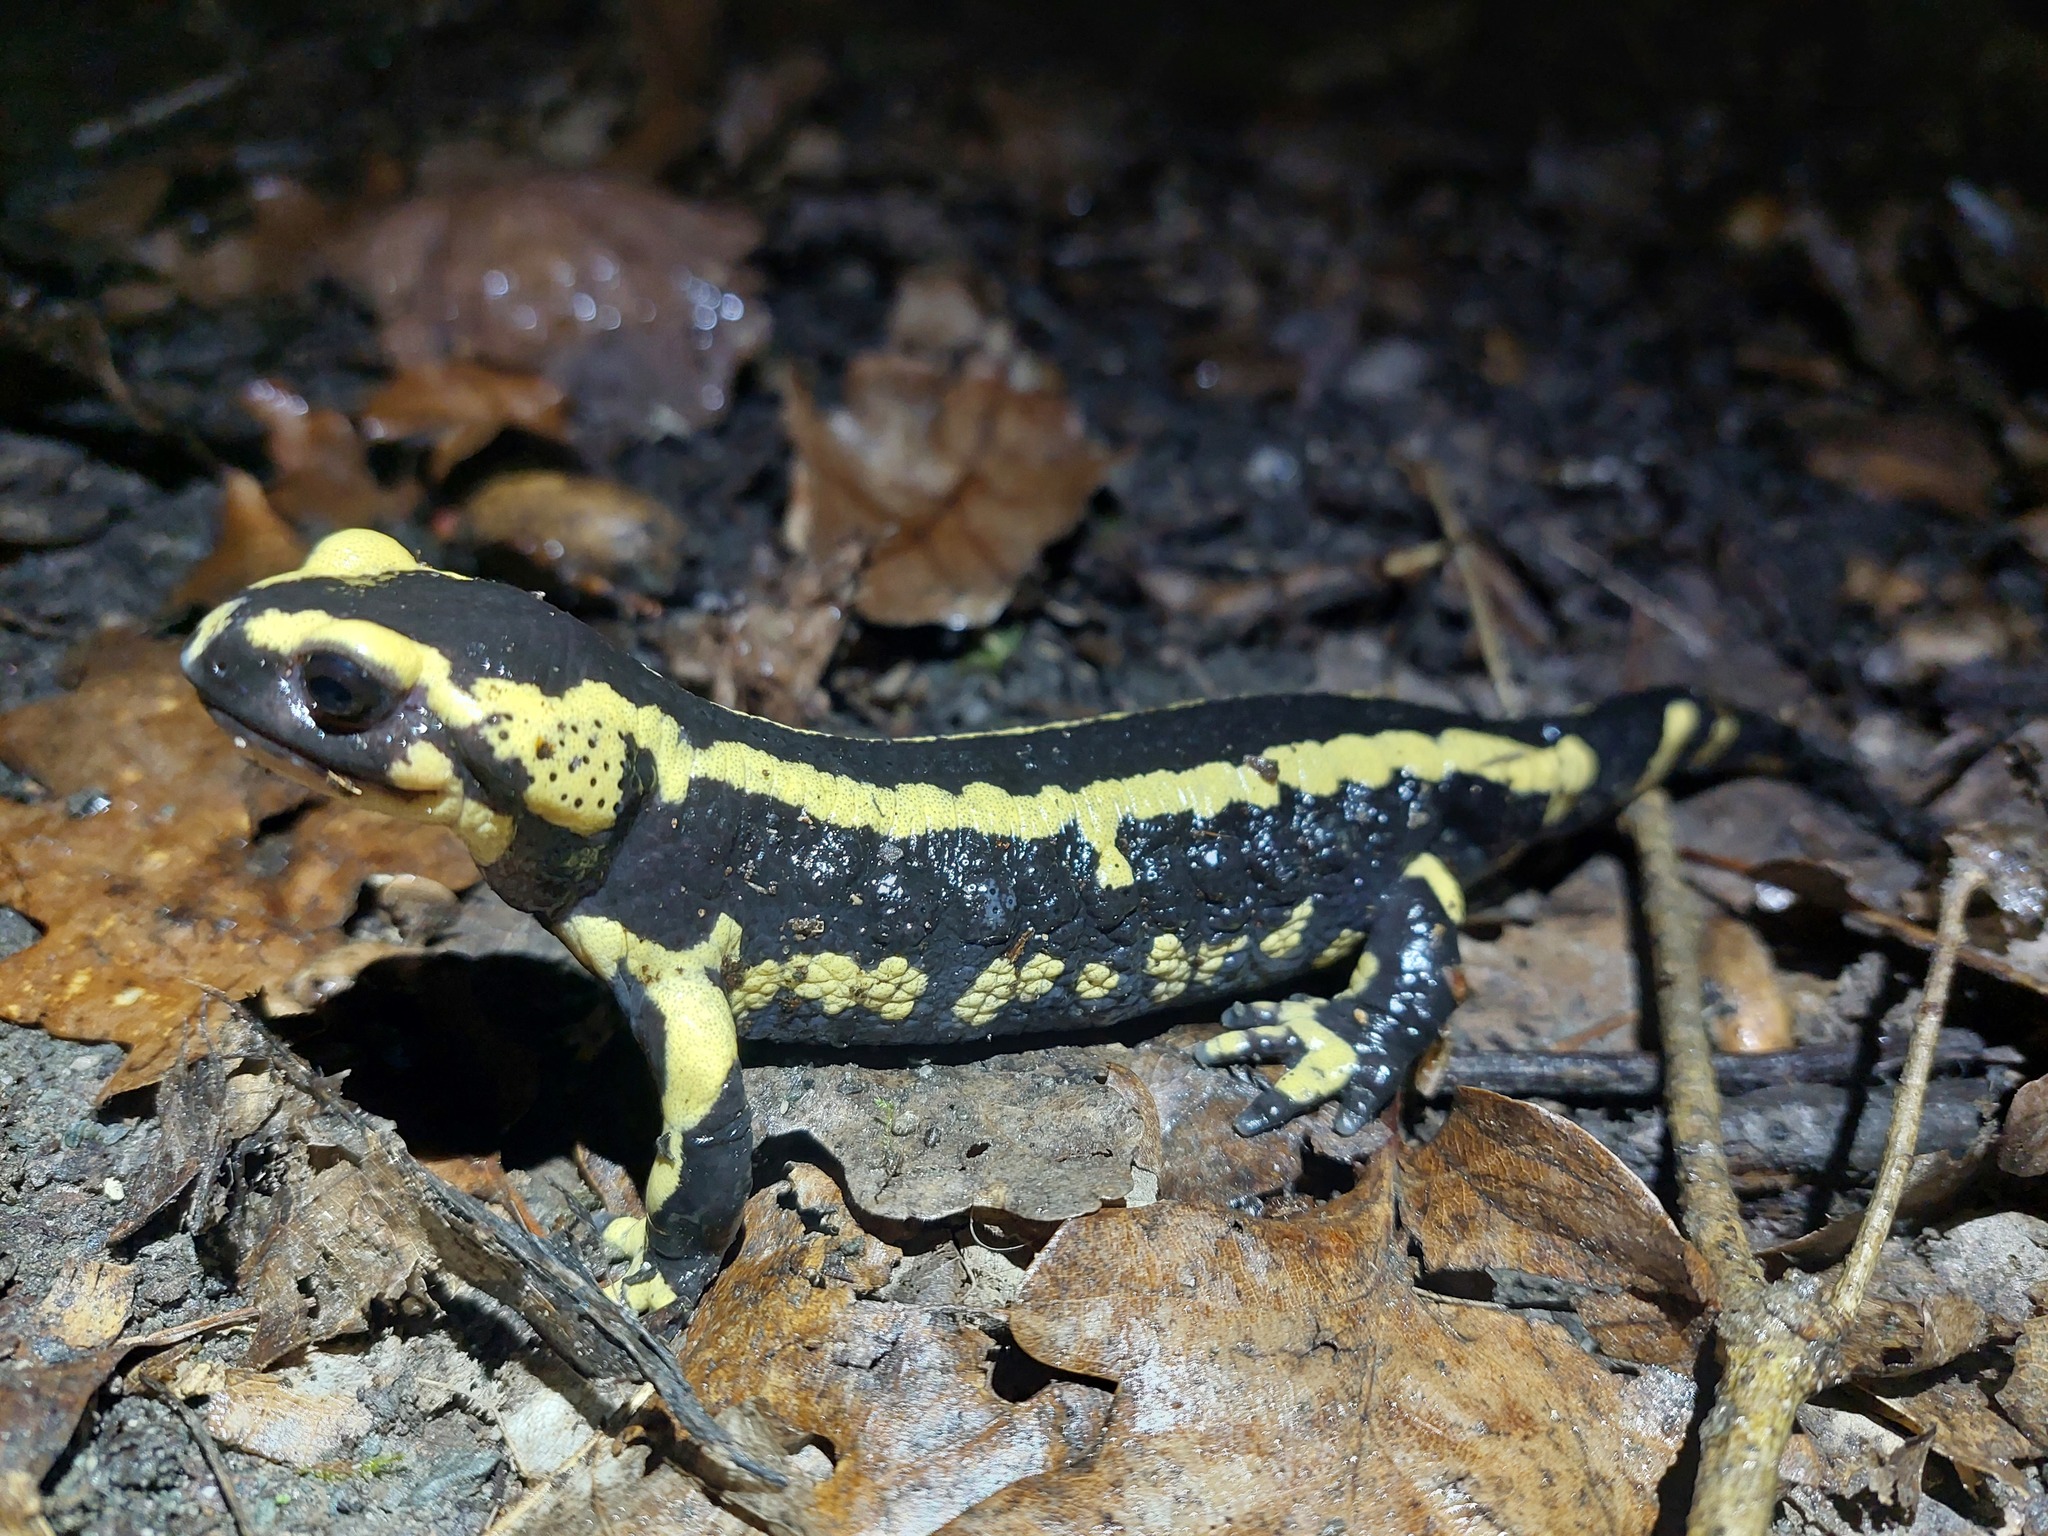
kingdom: Animalia
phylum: Chordata
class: Amphibia
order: Caudata
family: Salamandridae
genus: Salamandra
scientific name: Salamandra salamandra
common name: Fire salamander
